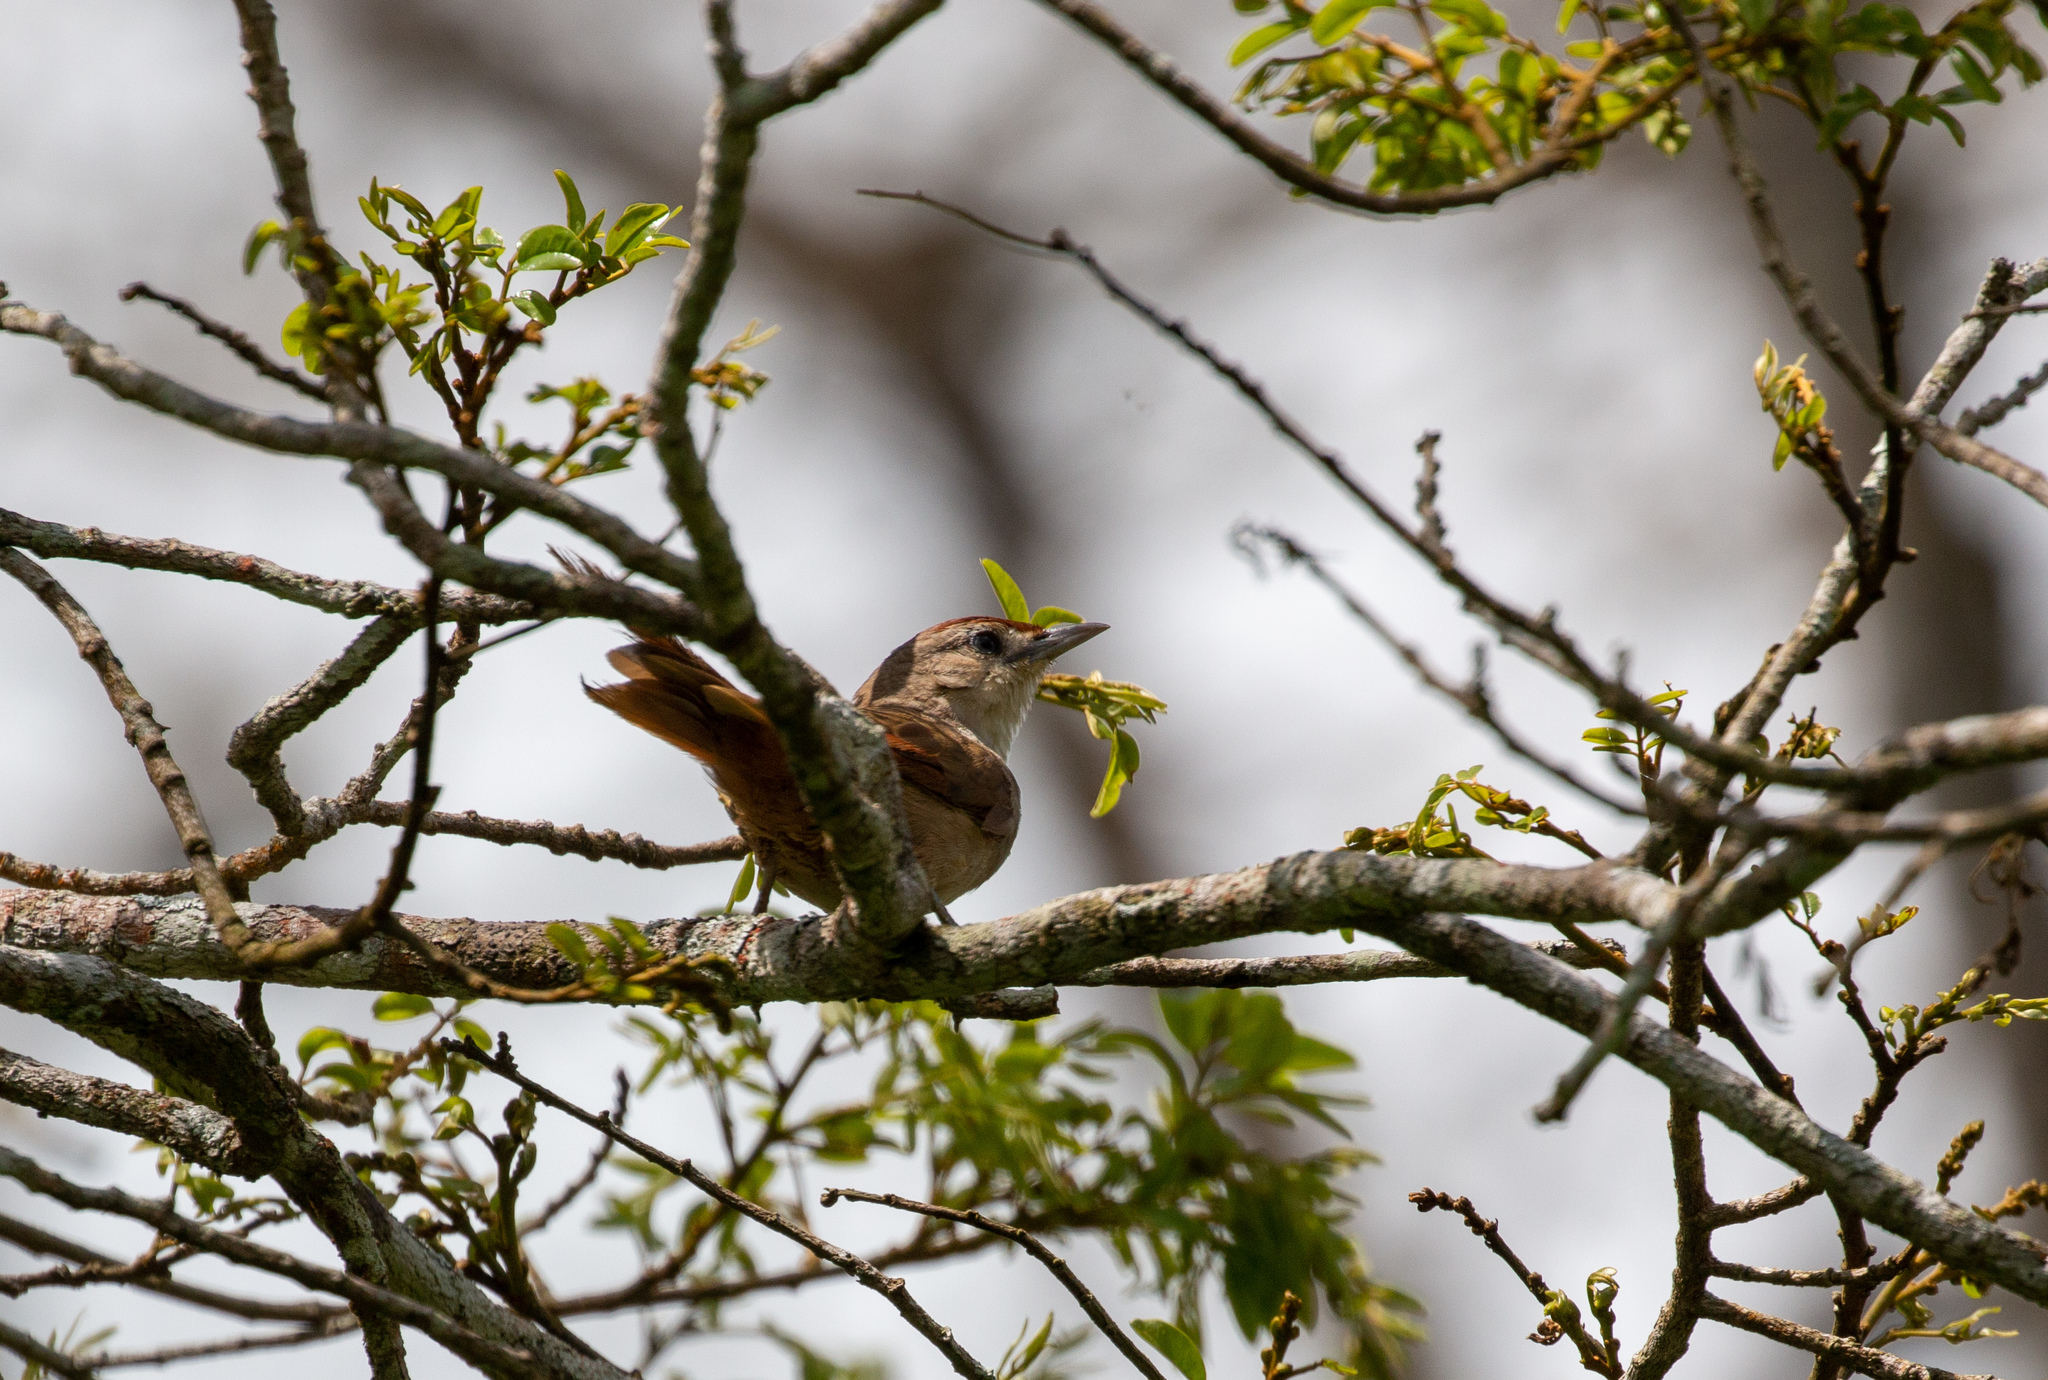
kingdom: Animalia
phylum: Chordata
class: Aves
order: Passeriformes
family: Furnariidae
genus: Phacellodomus
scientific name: Phacellodomus rufifrons
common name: Rufous-fronted thornbird
